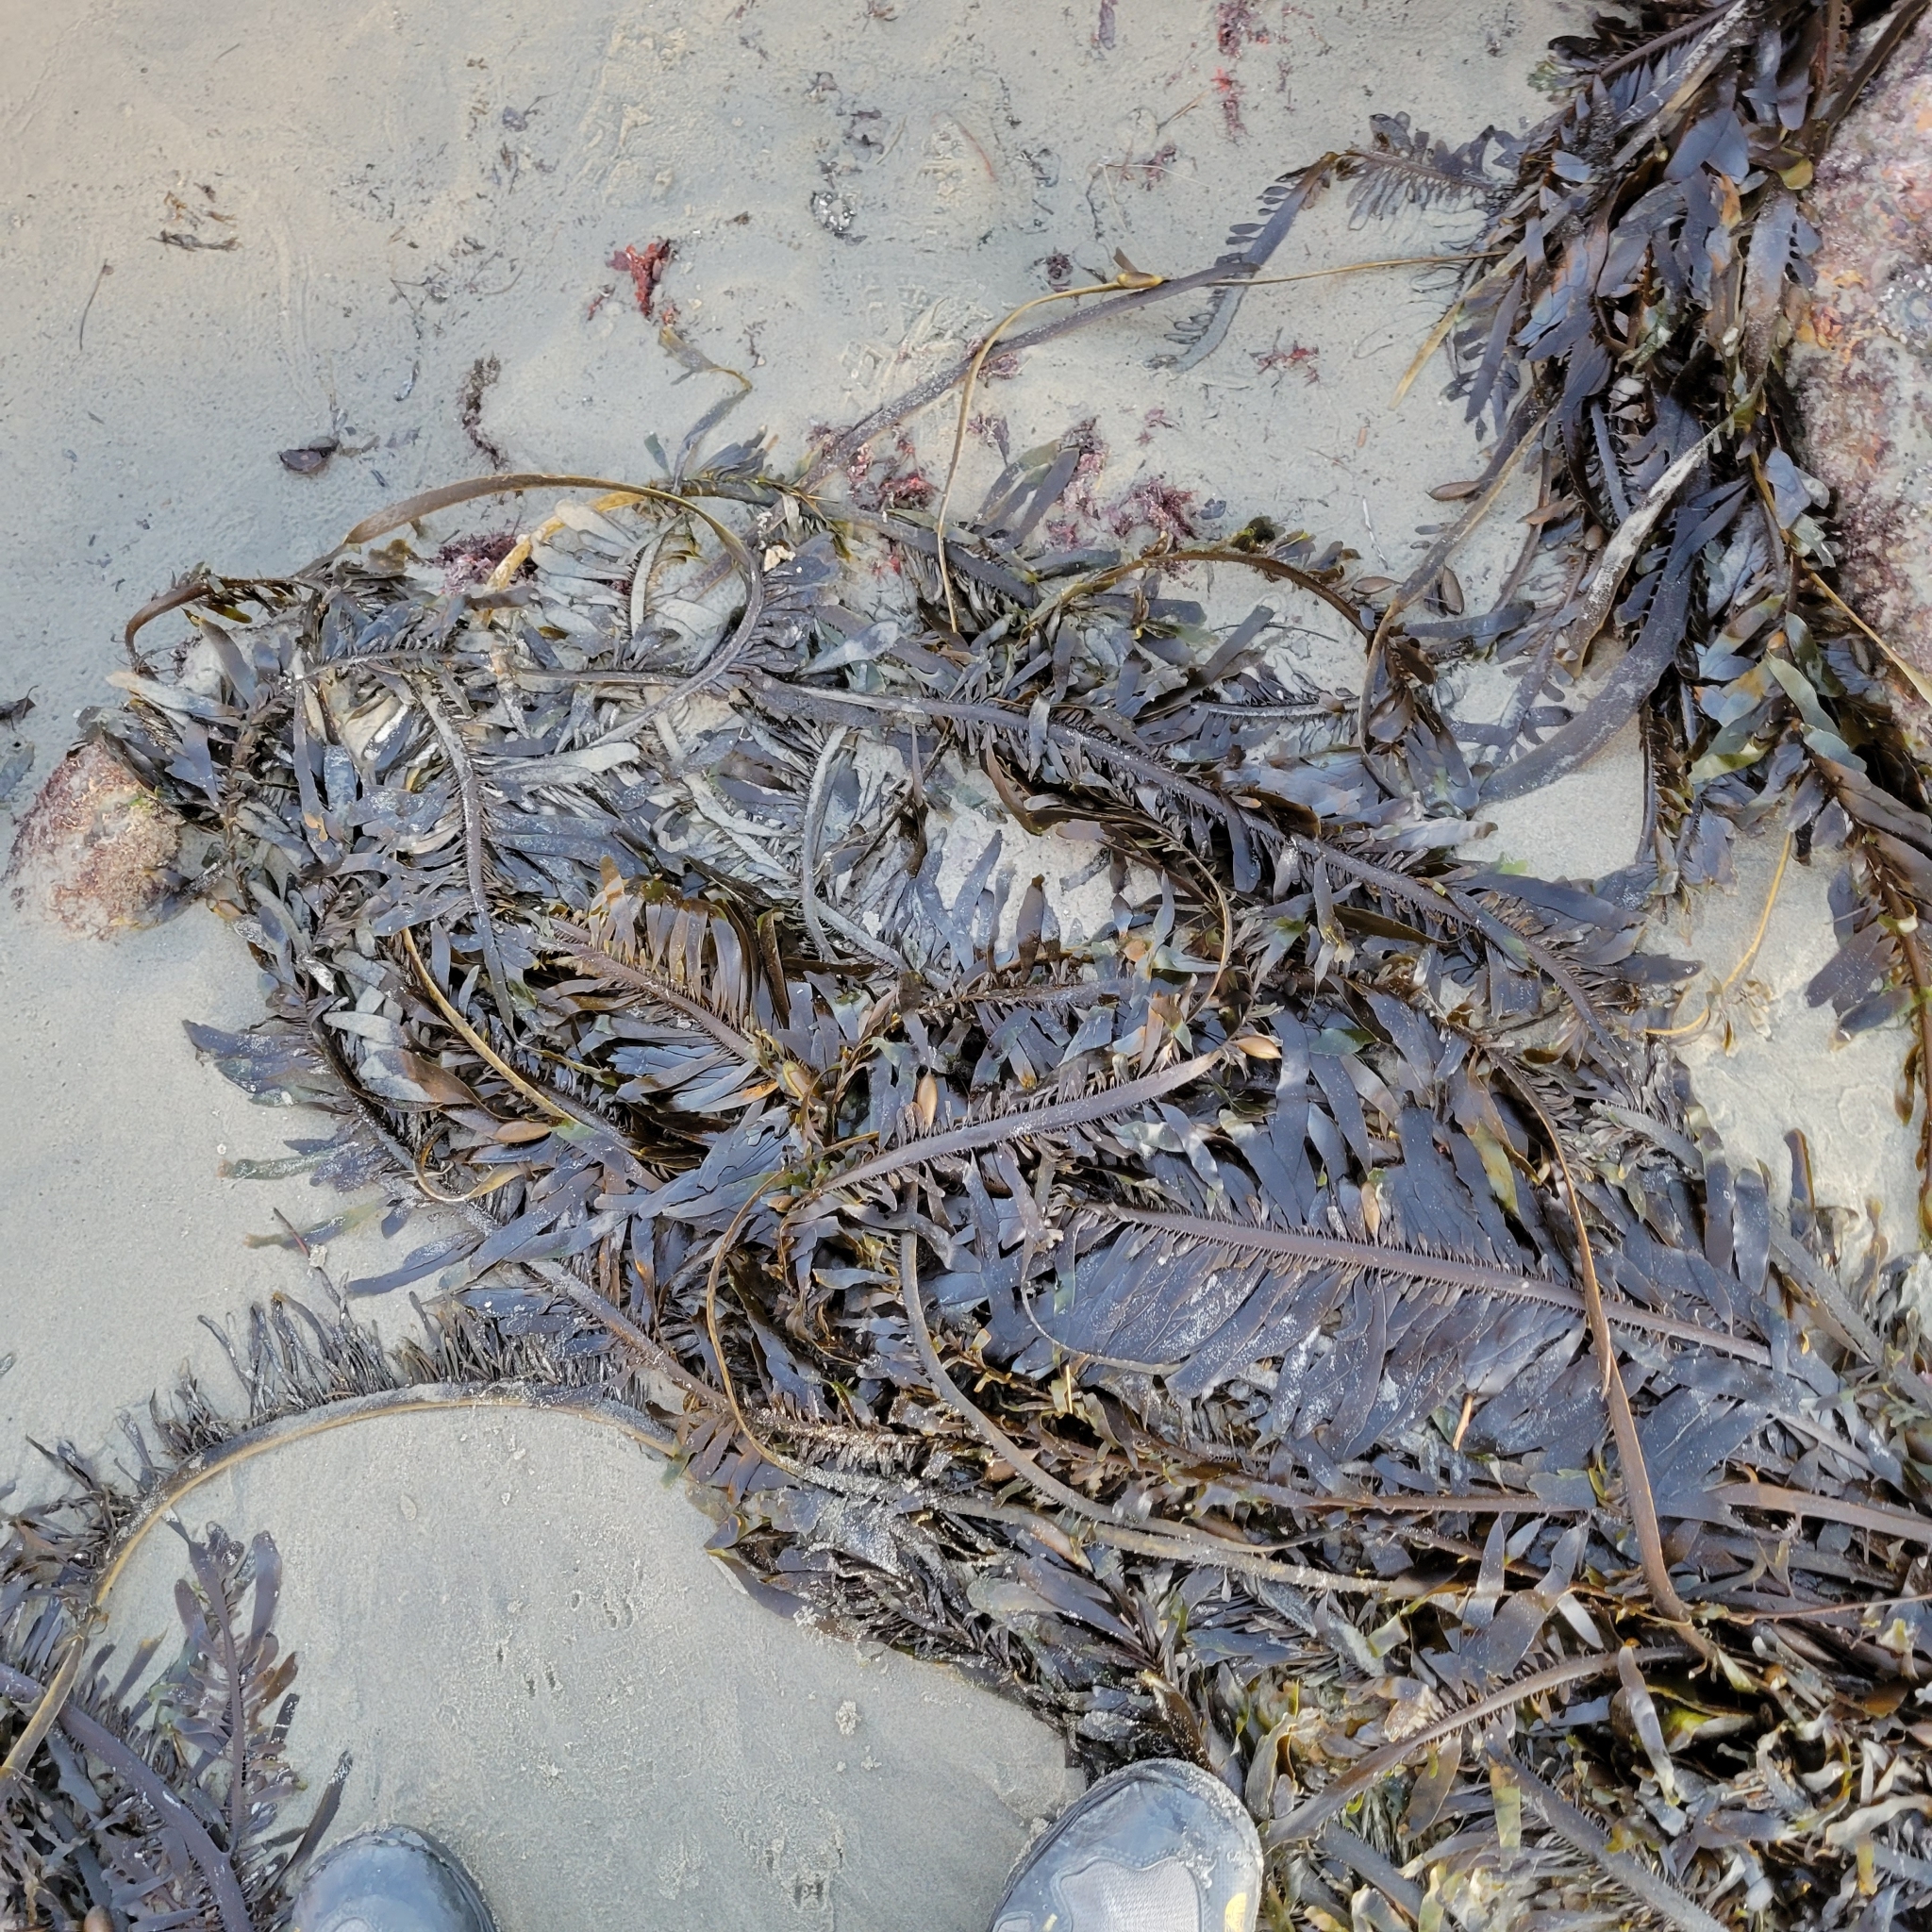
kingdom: Chromista
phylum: Ochrophyta
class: Phaeophyceae
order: Laminariales
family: Lessoniaceae
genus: Egregia
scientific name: Egregia menziesii
